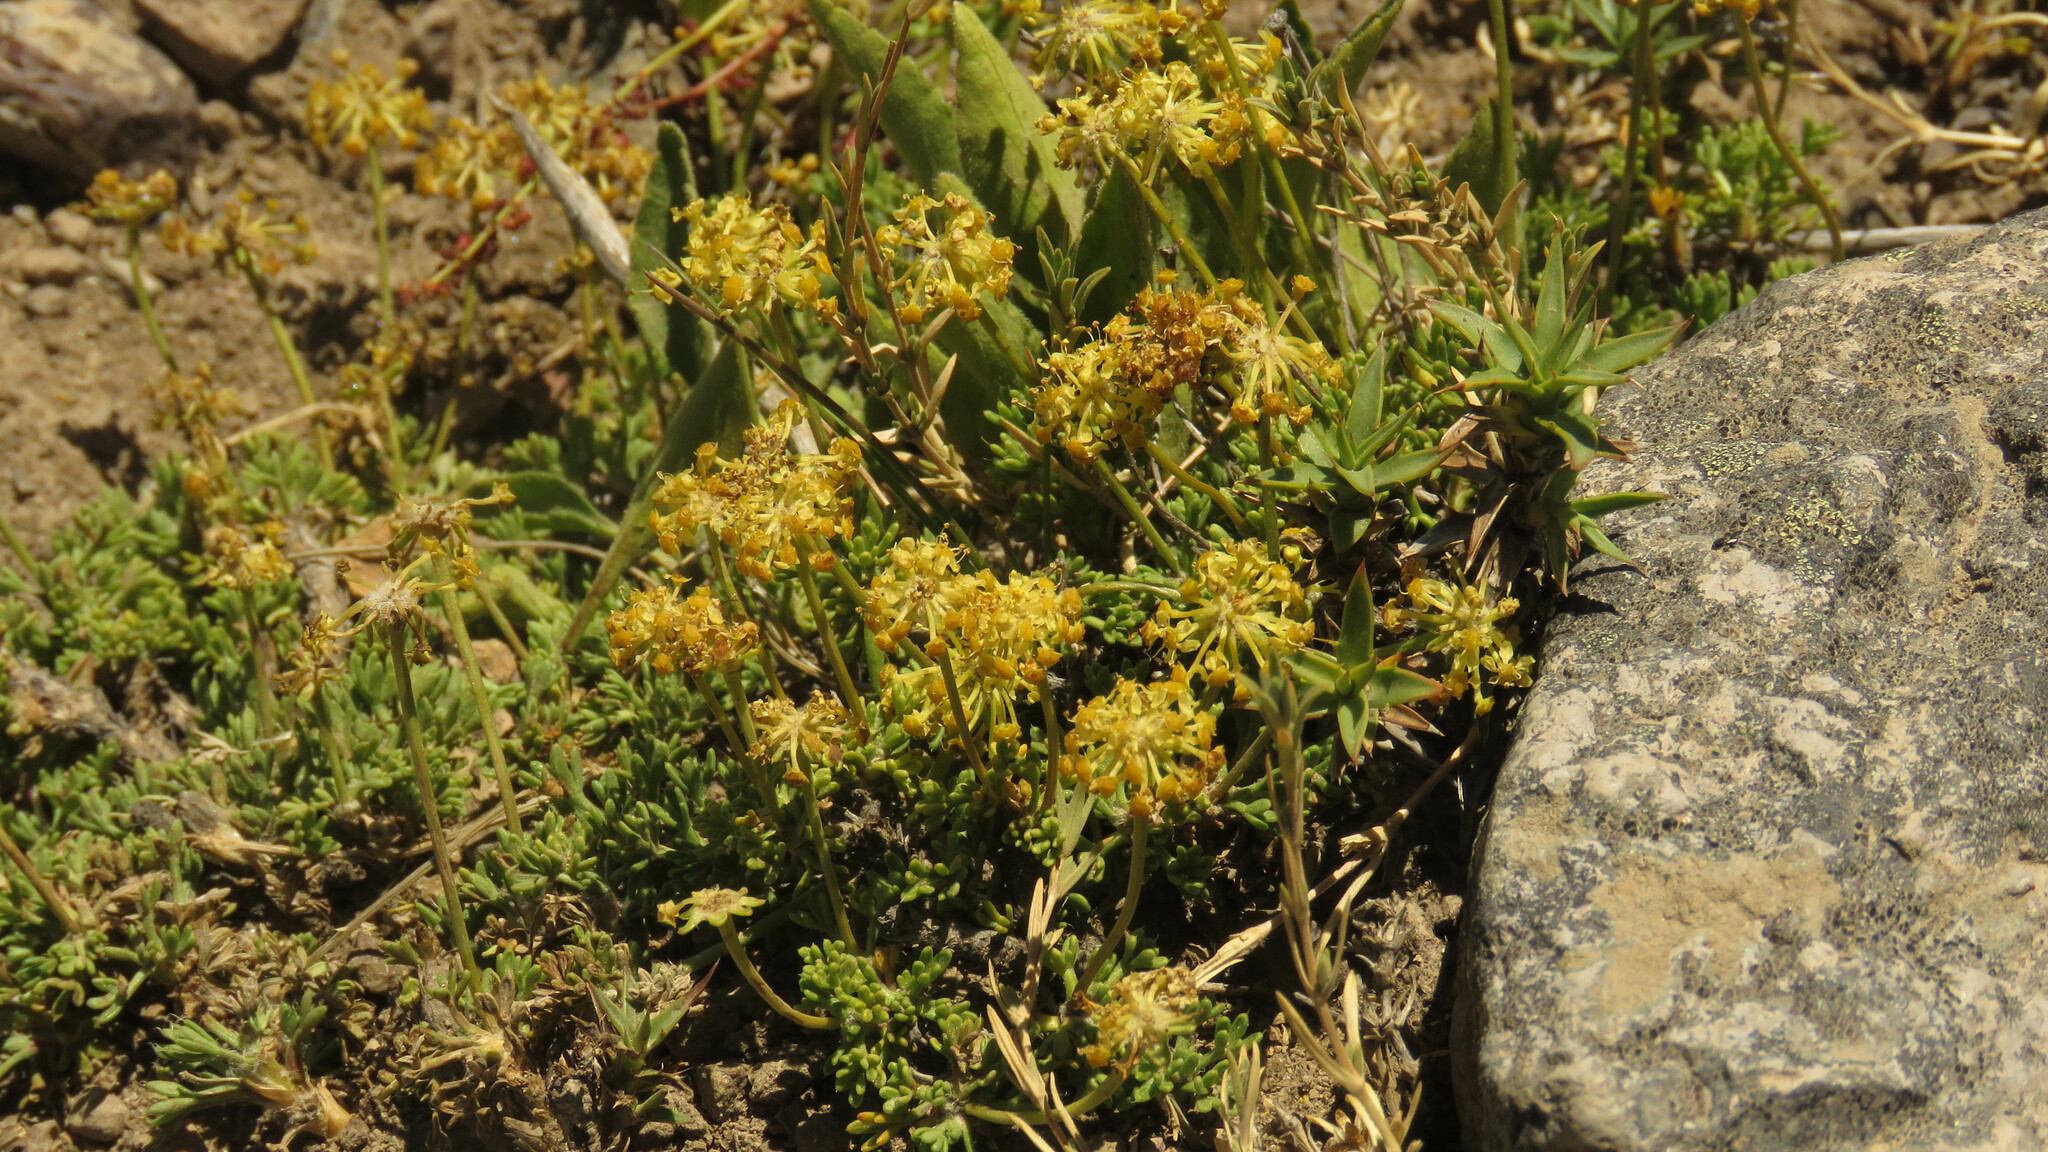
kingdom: Plantae
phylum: Tracheophyta
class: Magnoliopsida
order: Apiales
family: Apiaceae
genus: Azorella
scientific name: Azorella microphylla
